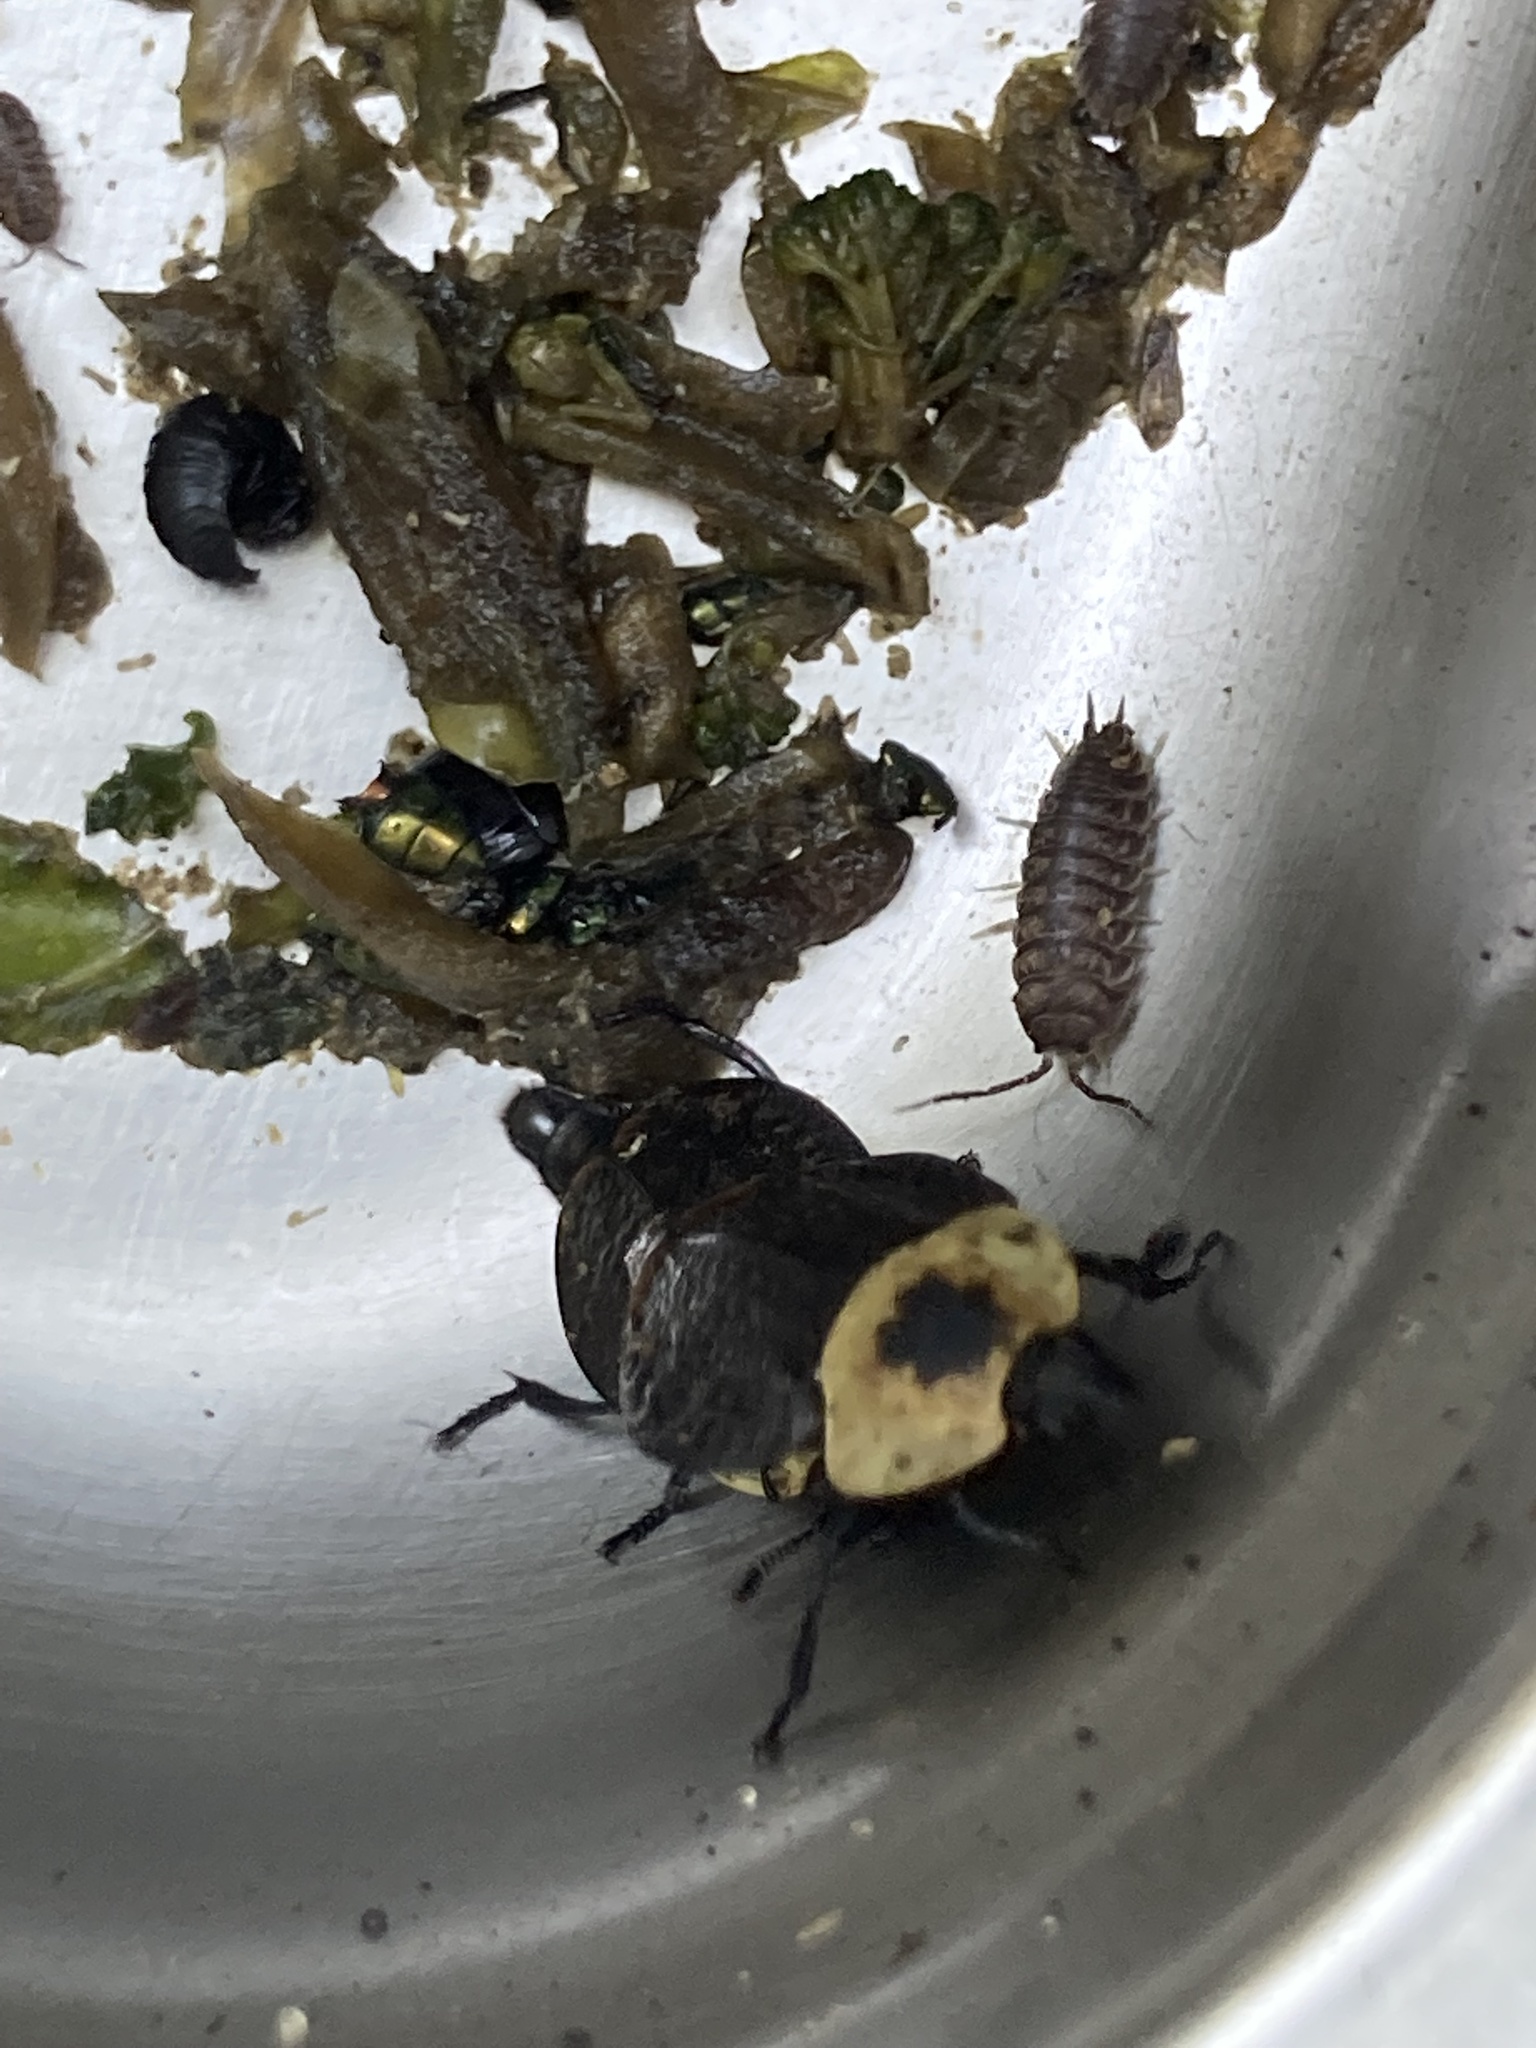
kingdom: Animalia
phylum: Arthropoda
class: Insecta
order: Coleoptera
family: Staphylinidae
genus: Necrophila
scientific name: Necrophila americana
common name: American carrion beetle
